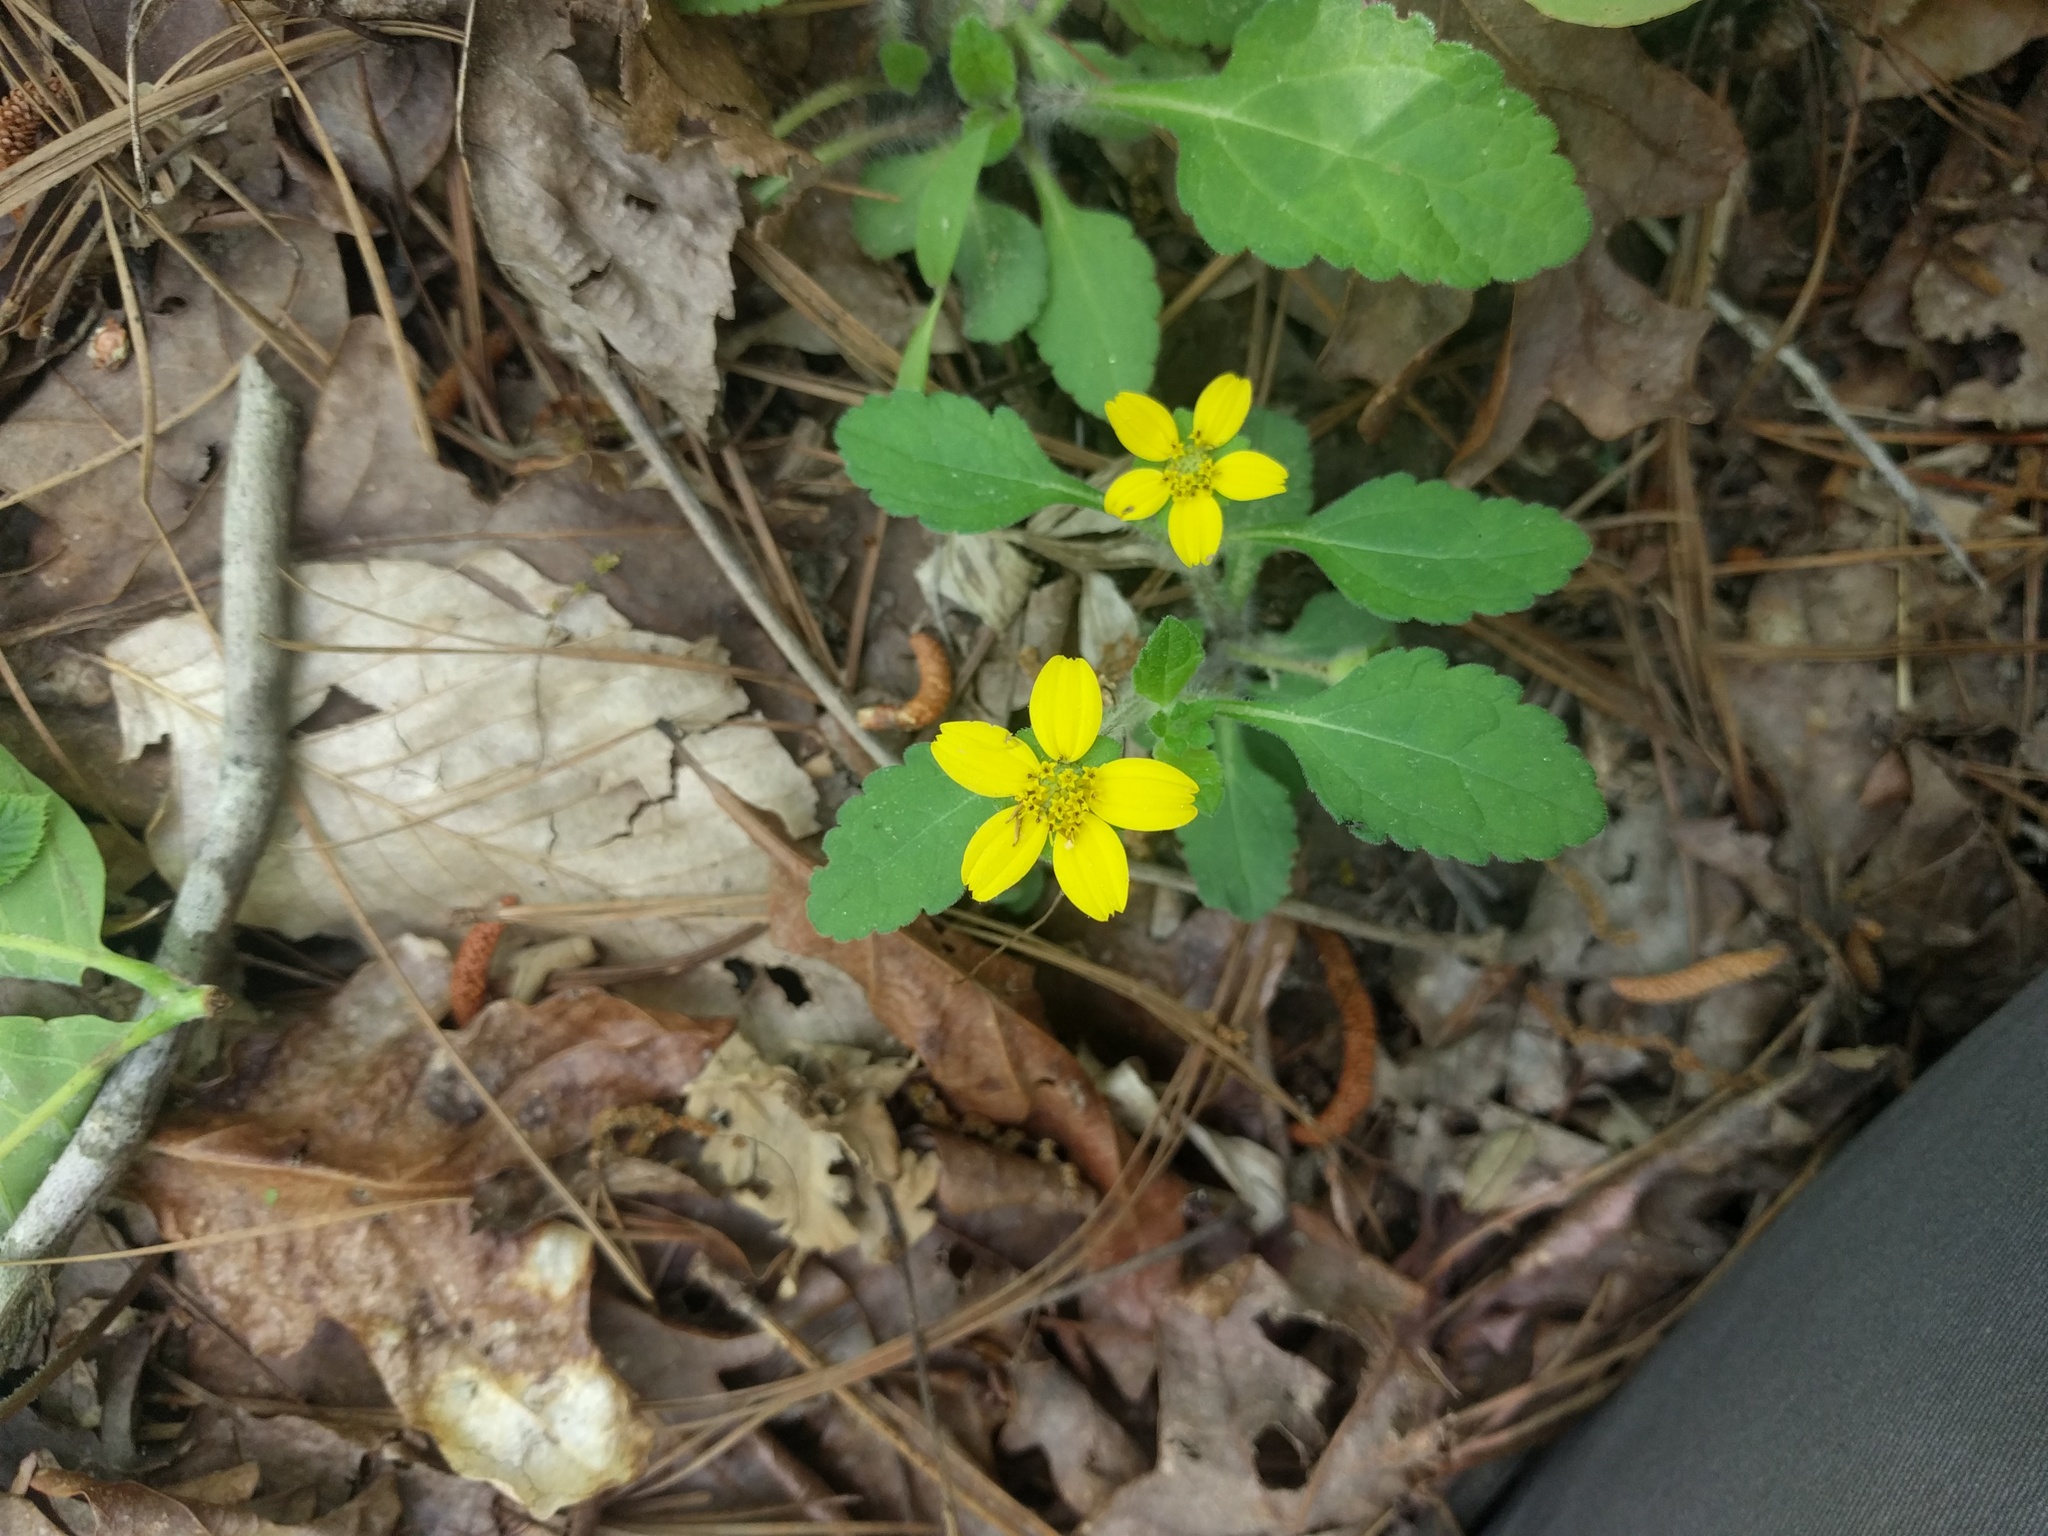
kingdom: Plantae
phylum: Tracheophyta
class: Magnoliopsida
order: Asterales
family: Asteraceae
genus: Chrysogonum
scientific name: Chrysogonum virginianum
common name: Golden-knee
